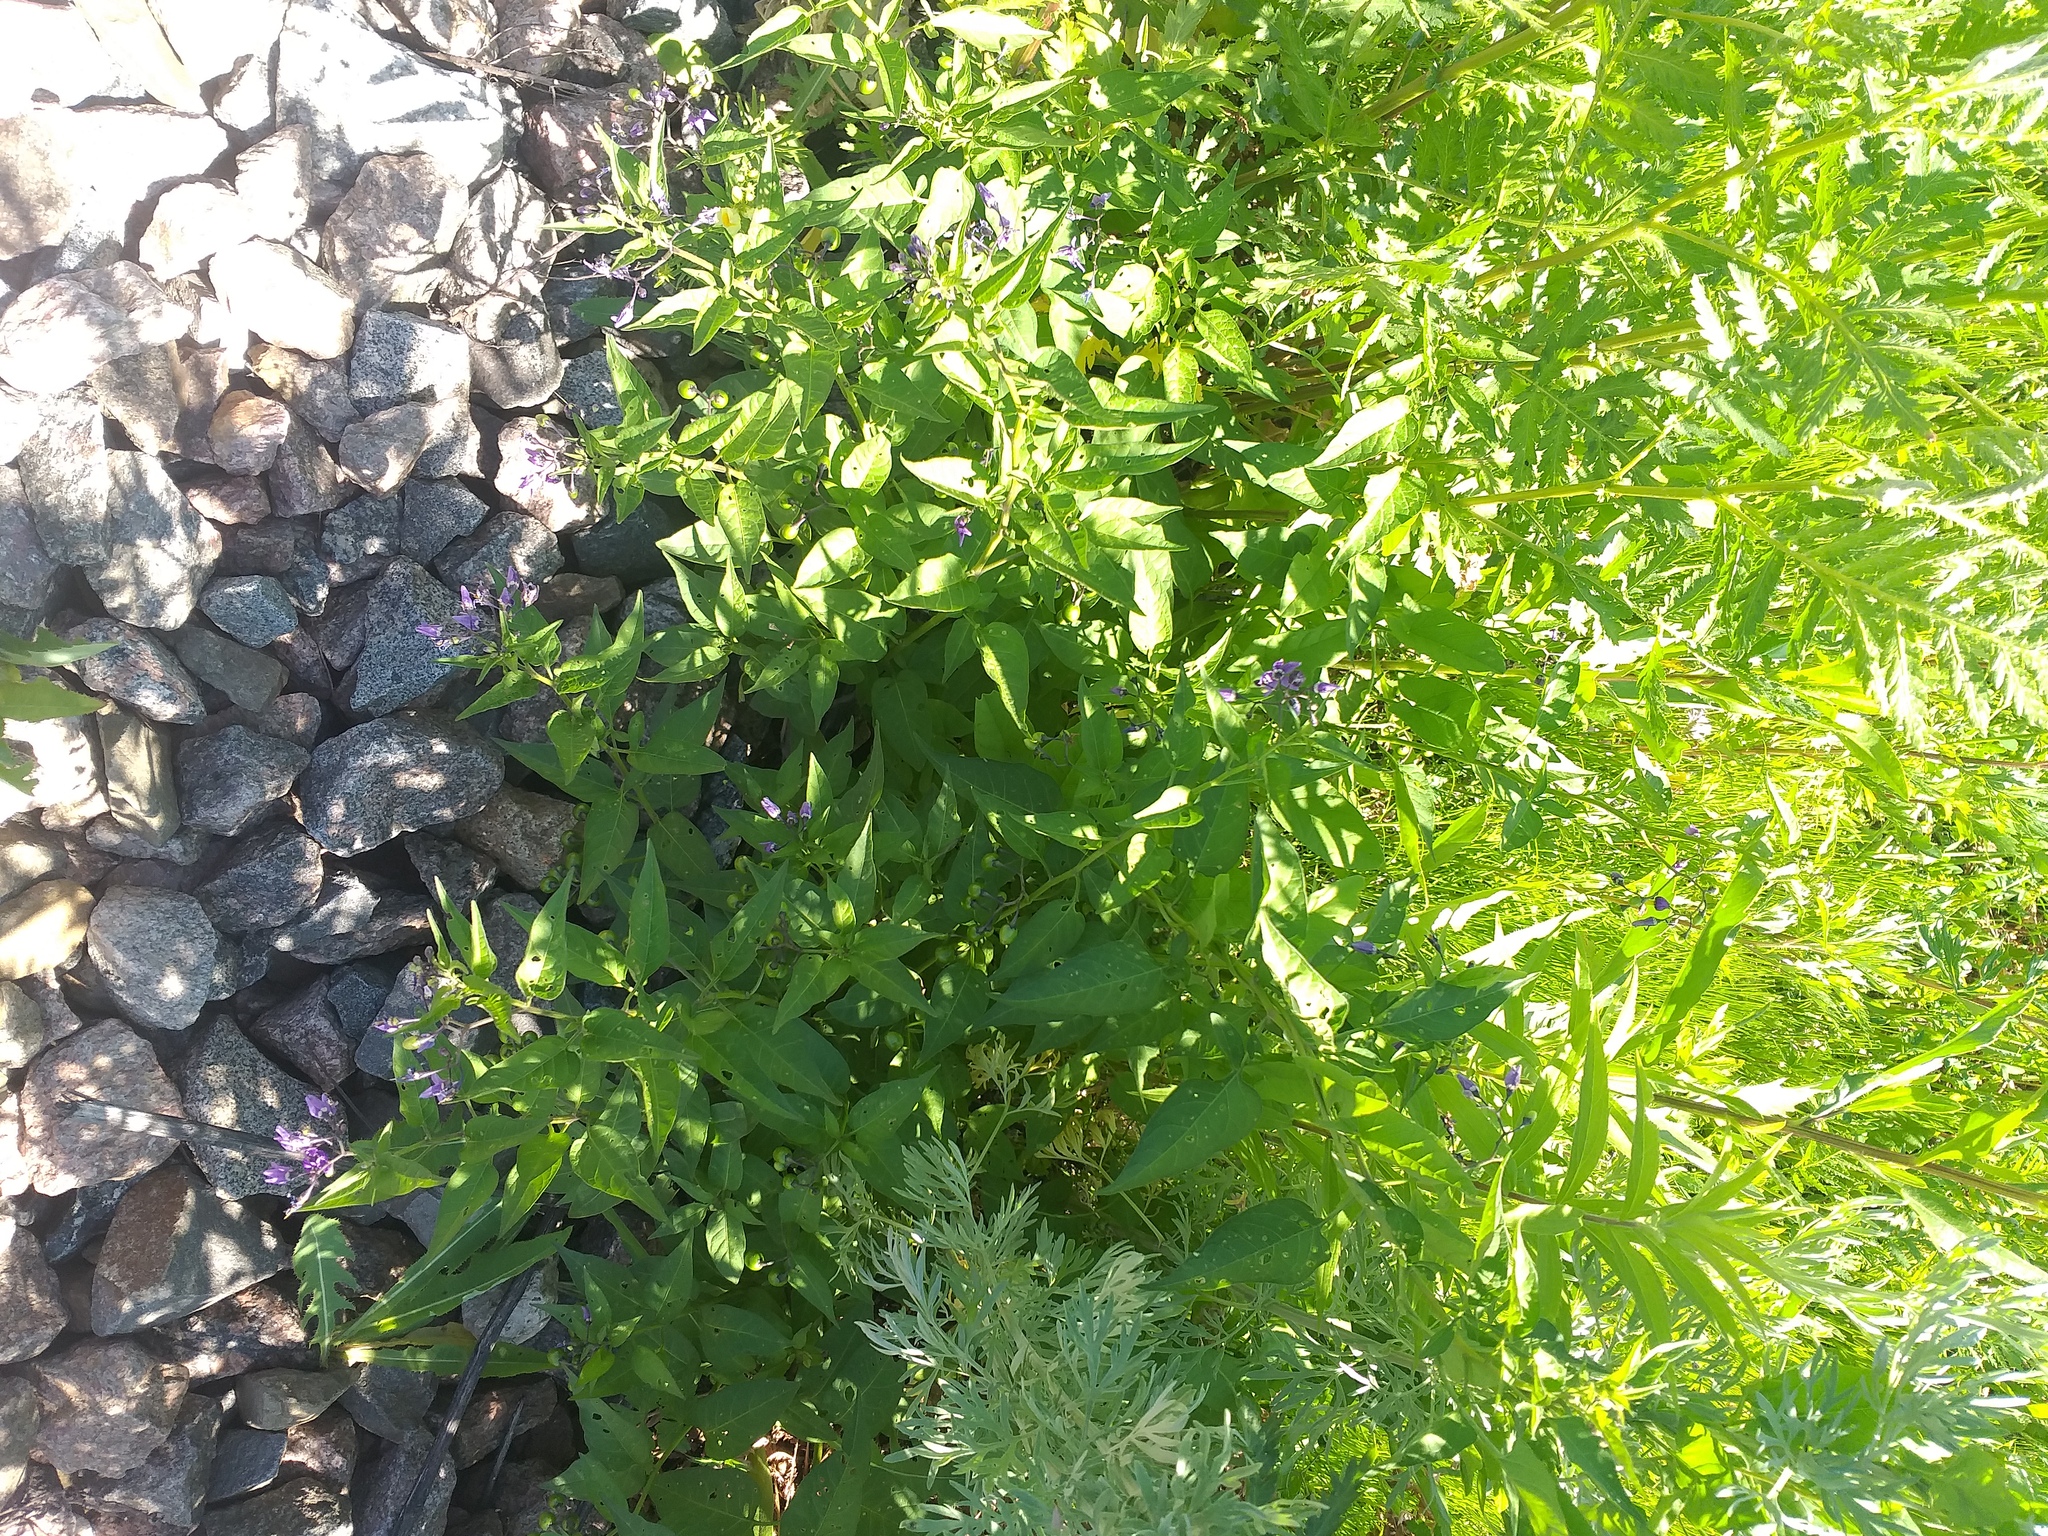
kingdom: Plantae
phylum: Tracheophyta
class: Magnoliopsida
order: Solanales
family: Solanaceae
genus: Solanum
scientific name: Solanum dulcamara
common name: Climbing nightshade
